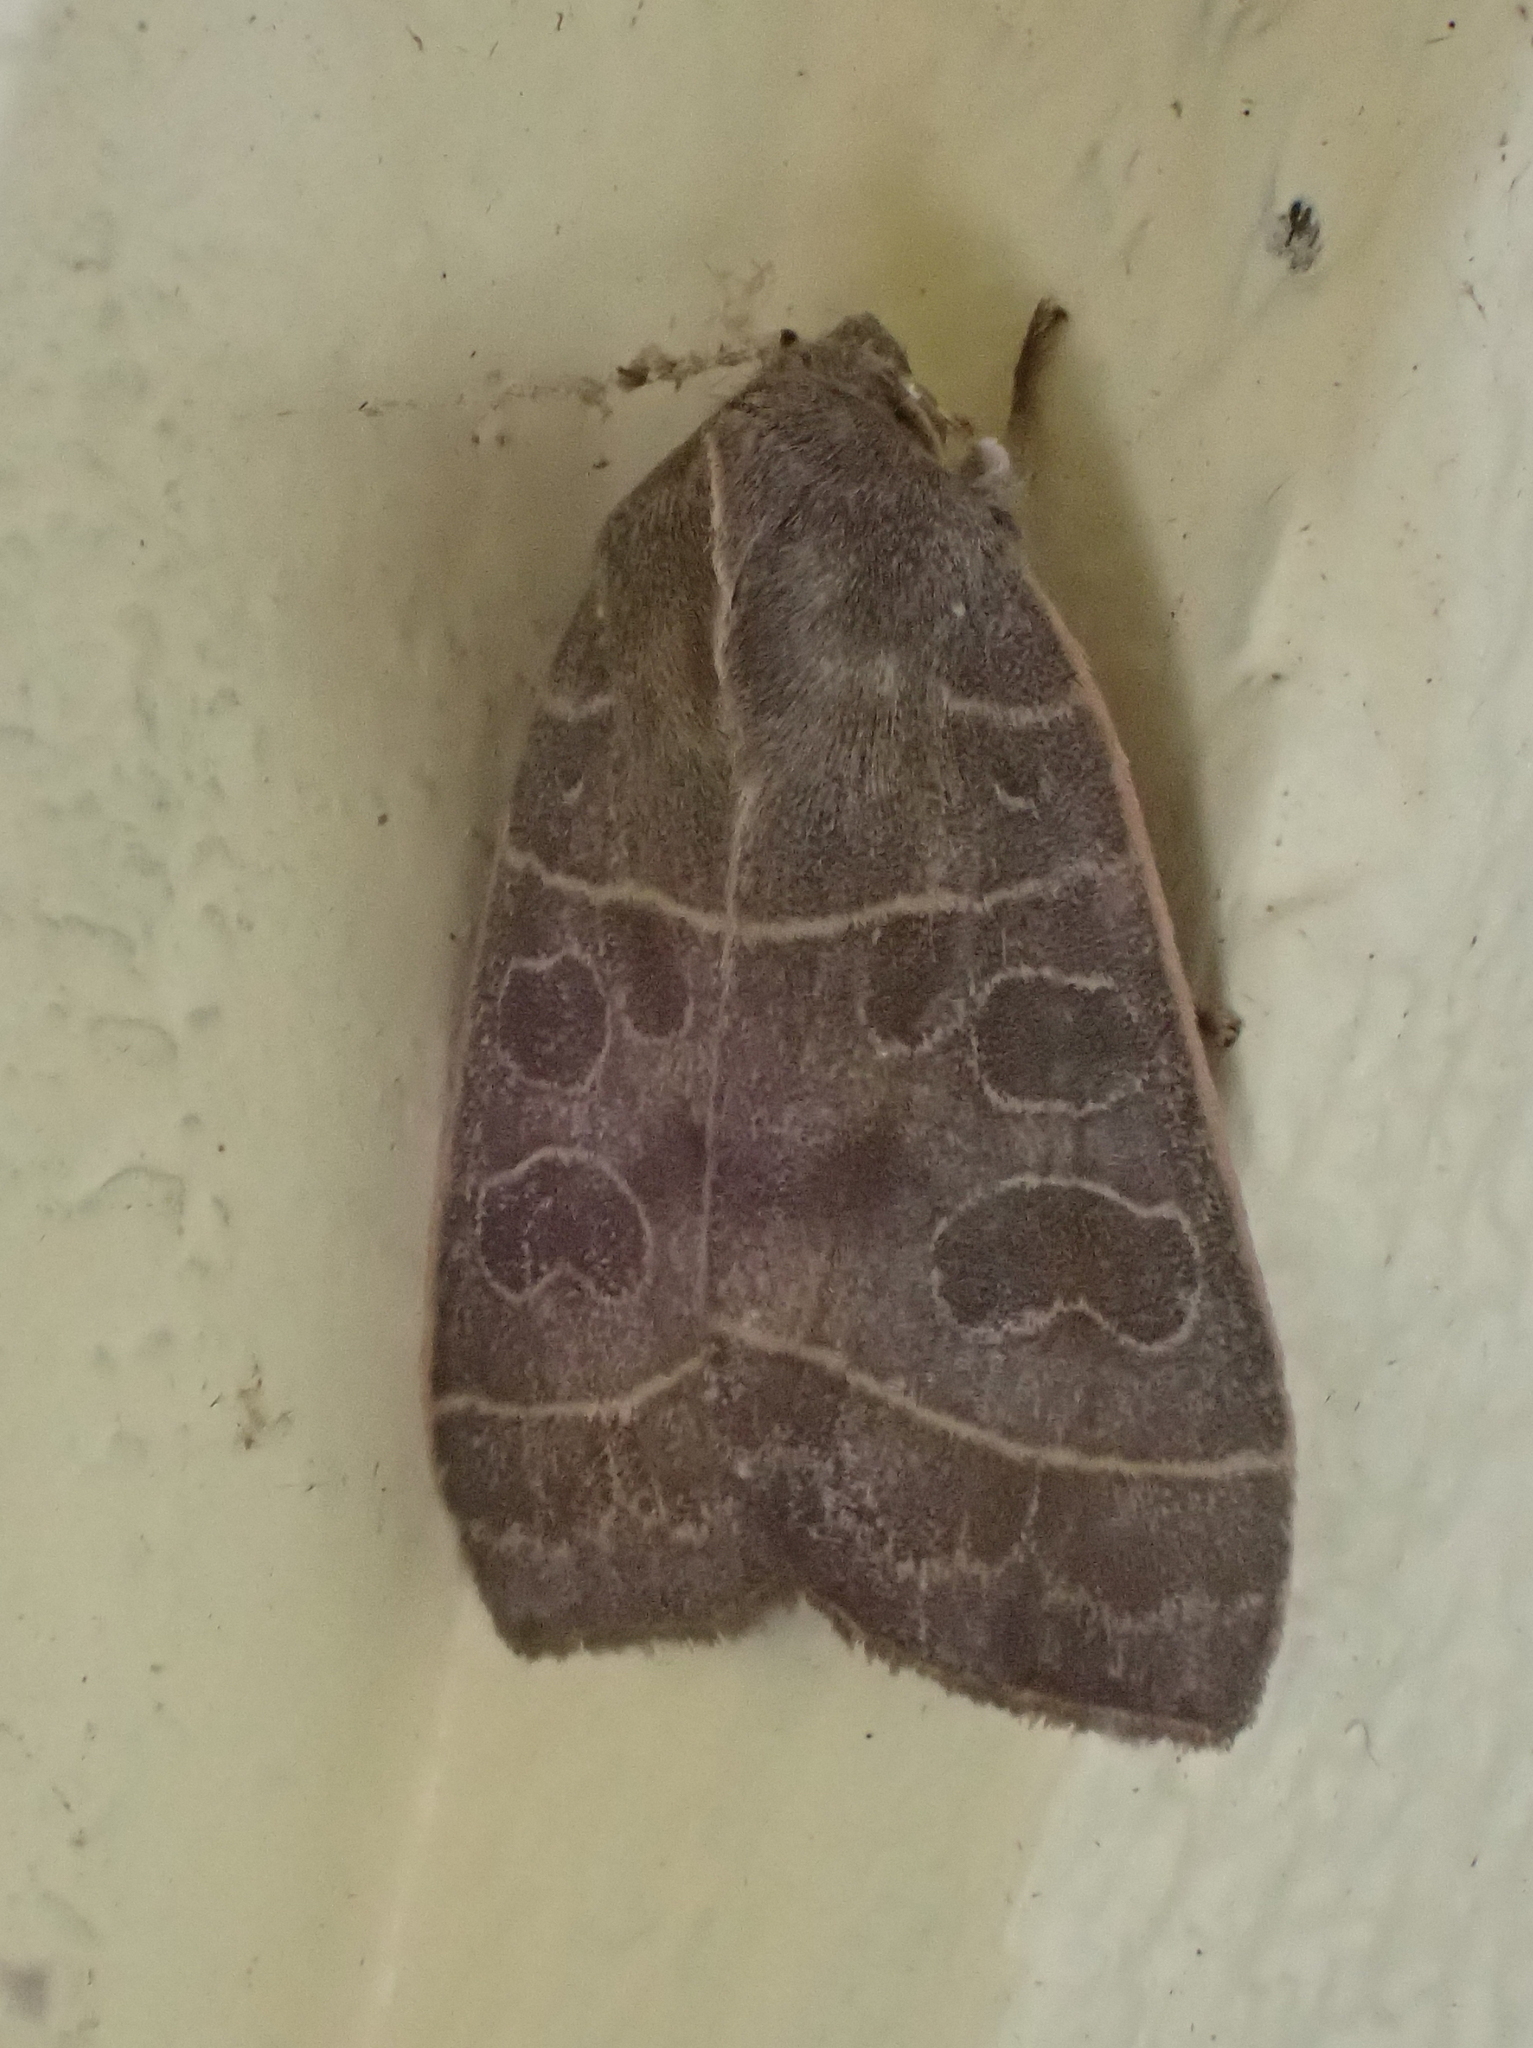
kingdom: Animalia
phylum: Arthropoda
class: Insecta
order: Lepidoptera
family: Noctuidae
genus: Ipimorpha
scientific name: Ipimorpha pleonectusa
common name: Even-lined sallow
